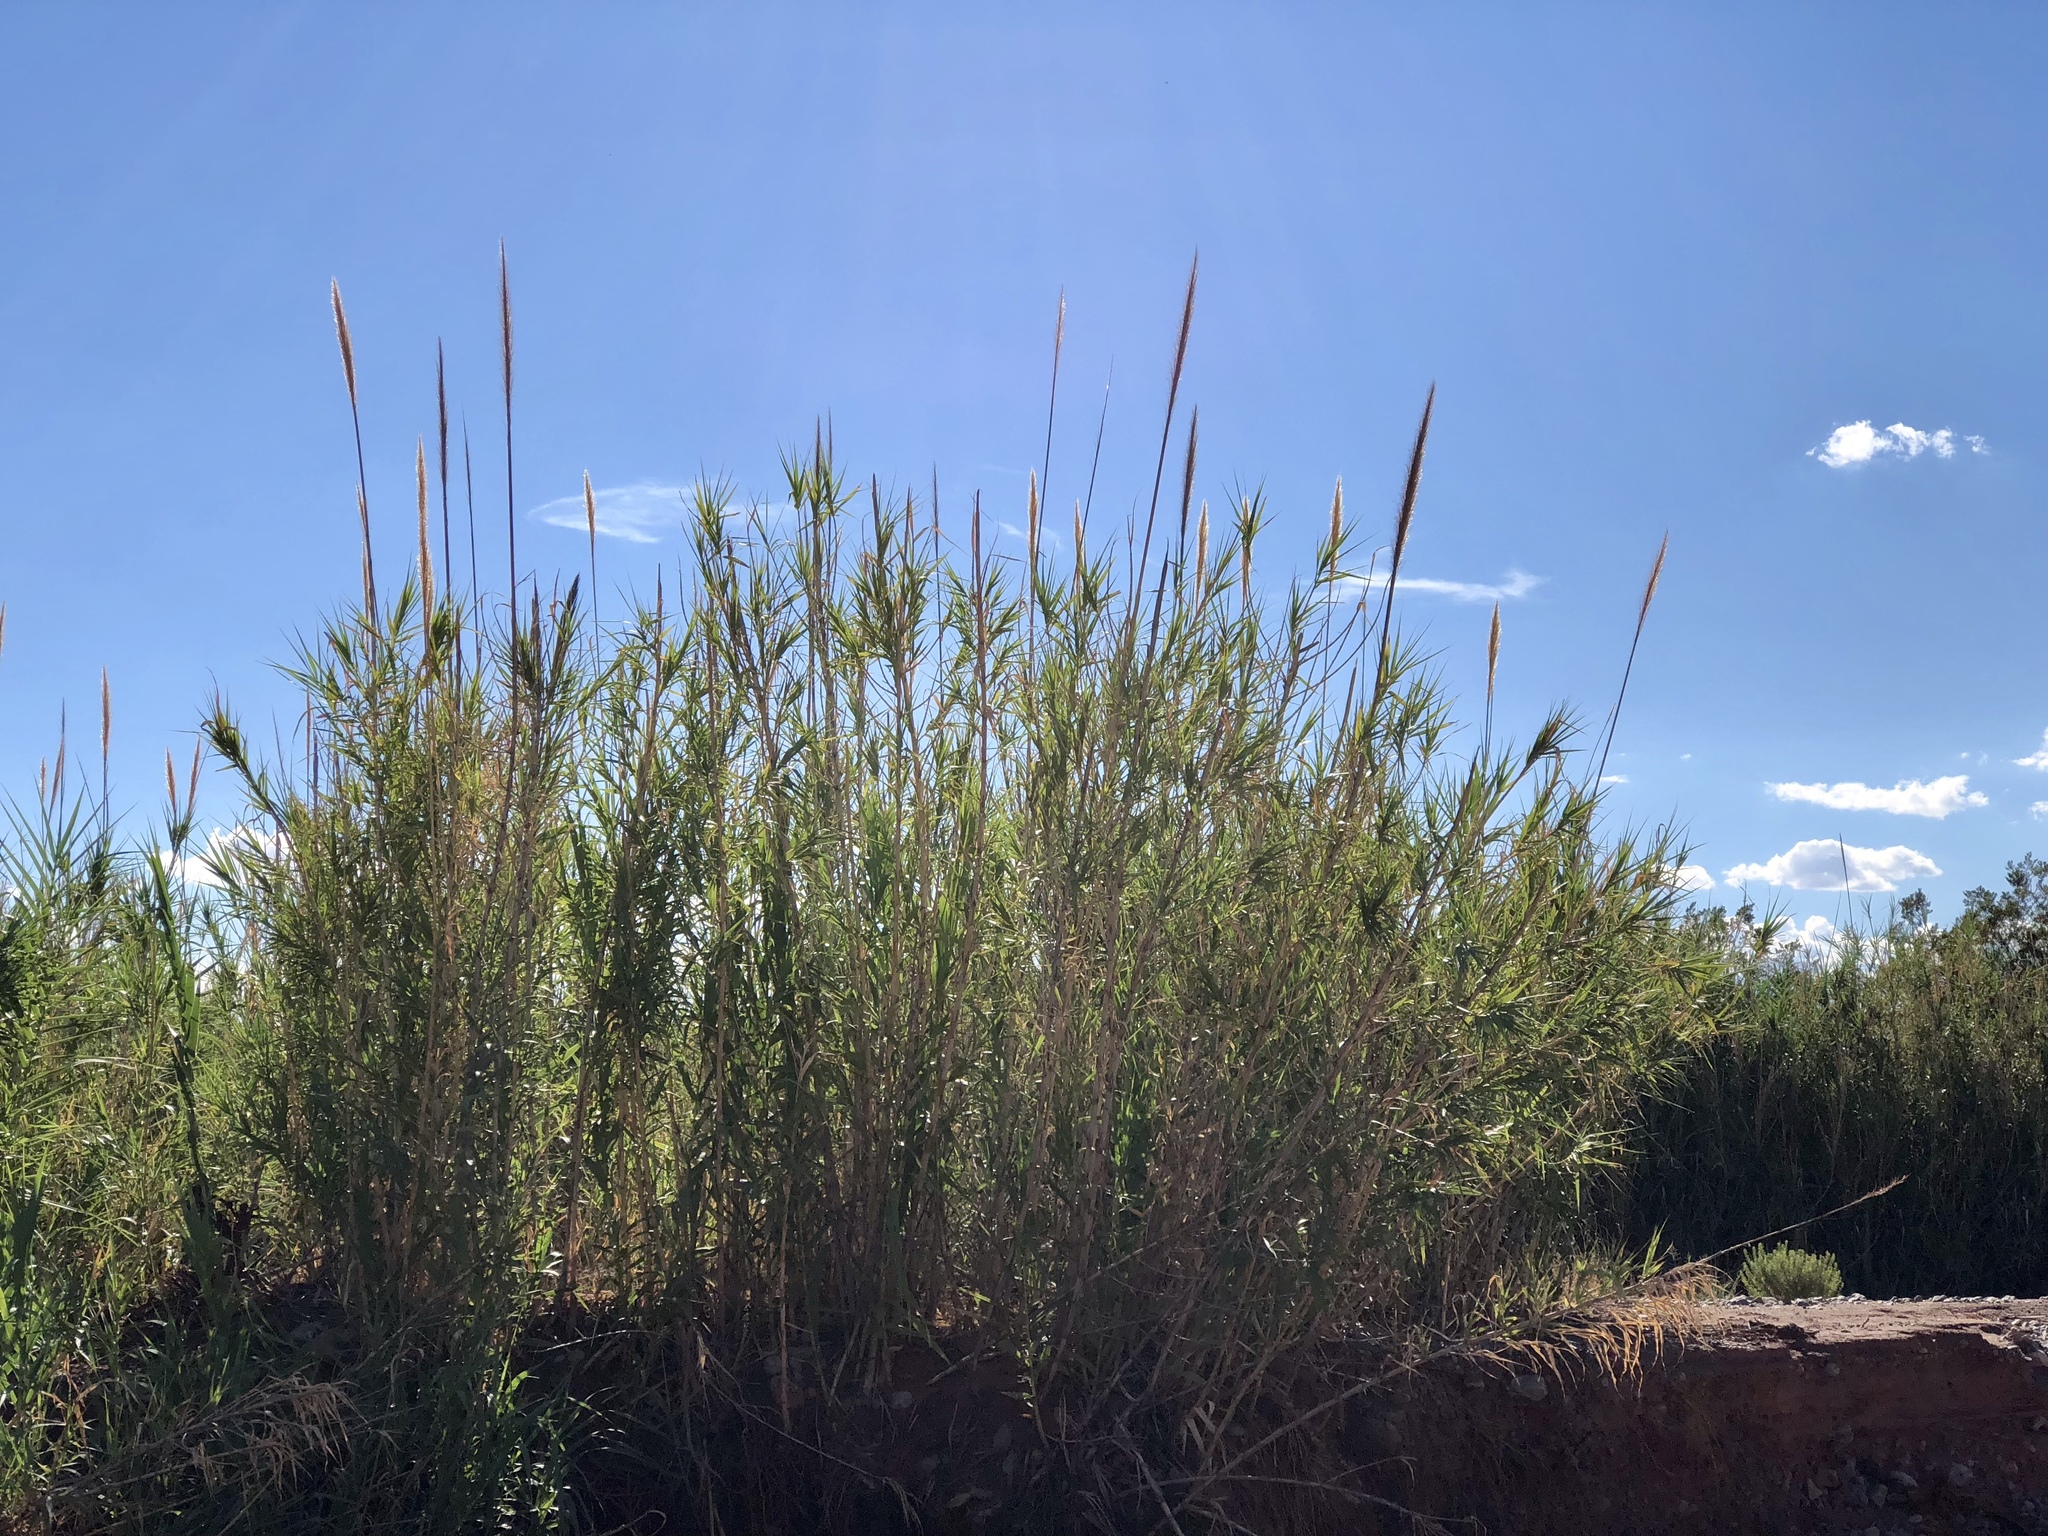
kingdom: Plantae
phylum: Tracheophyta
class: Liliopsida
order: Poales
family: Poaceae
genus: Arundo
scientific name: Arundo donax
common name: Giant reed
